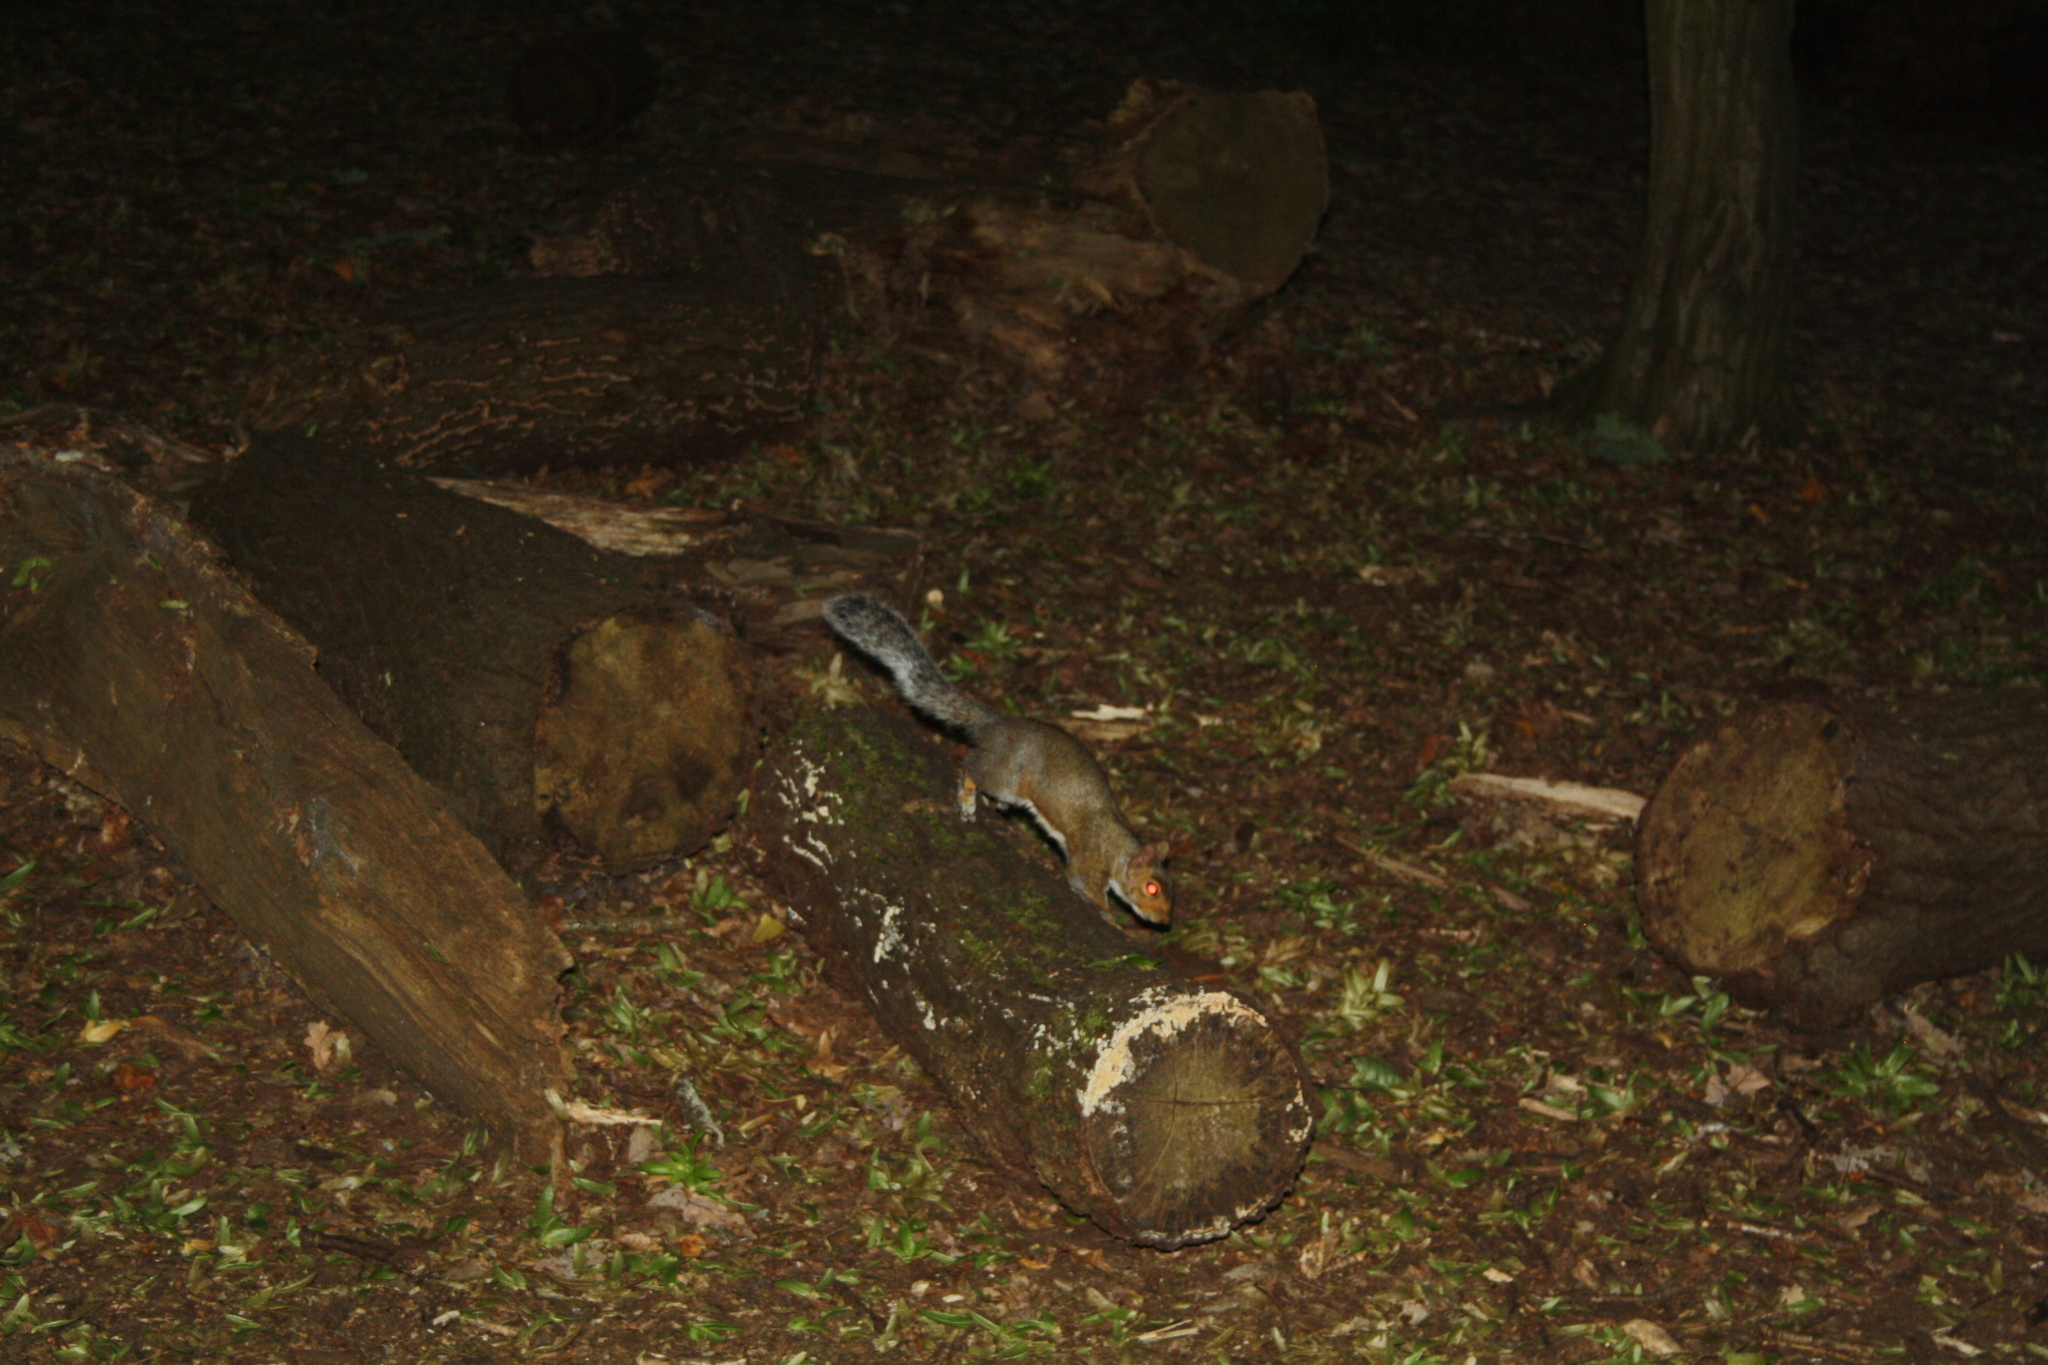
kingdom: Animalia
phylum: Chordata
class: Mammalia
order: Rodentia
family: Sciuridae
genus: Sciurus
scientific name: Sciurus carolinensis
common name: Eastern gray squirrel
